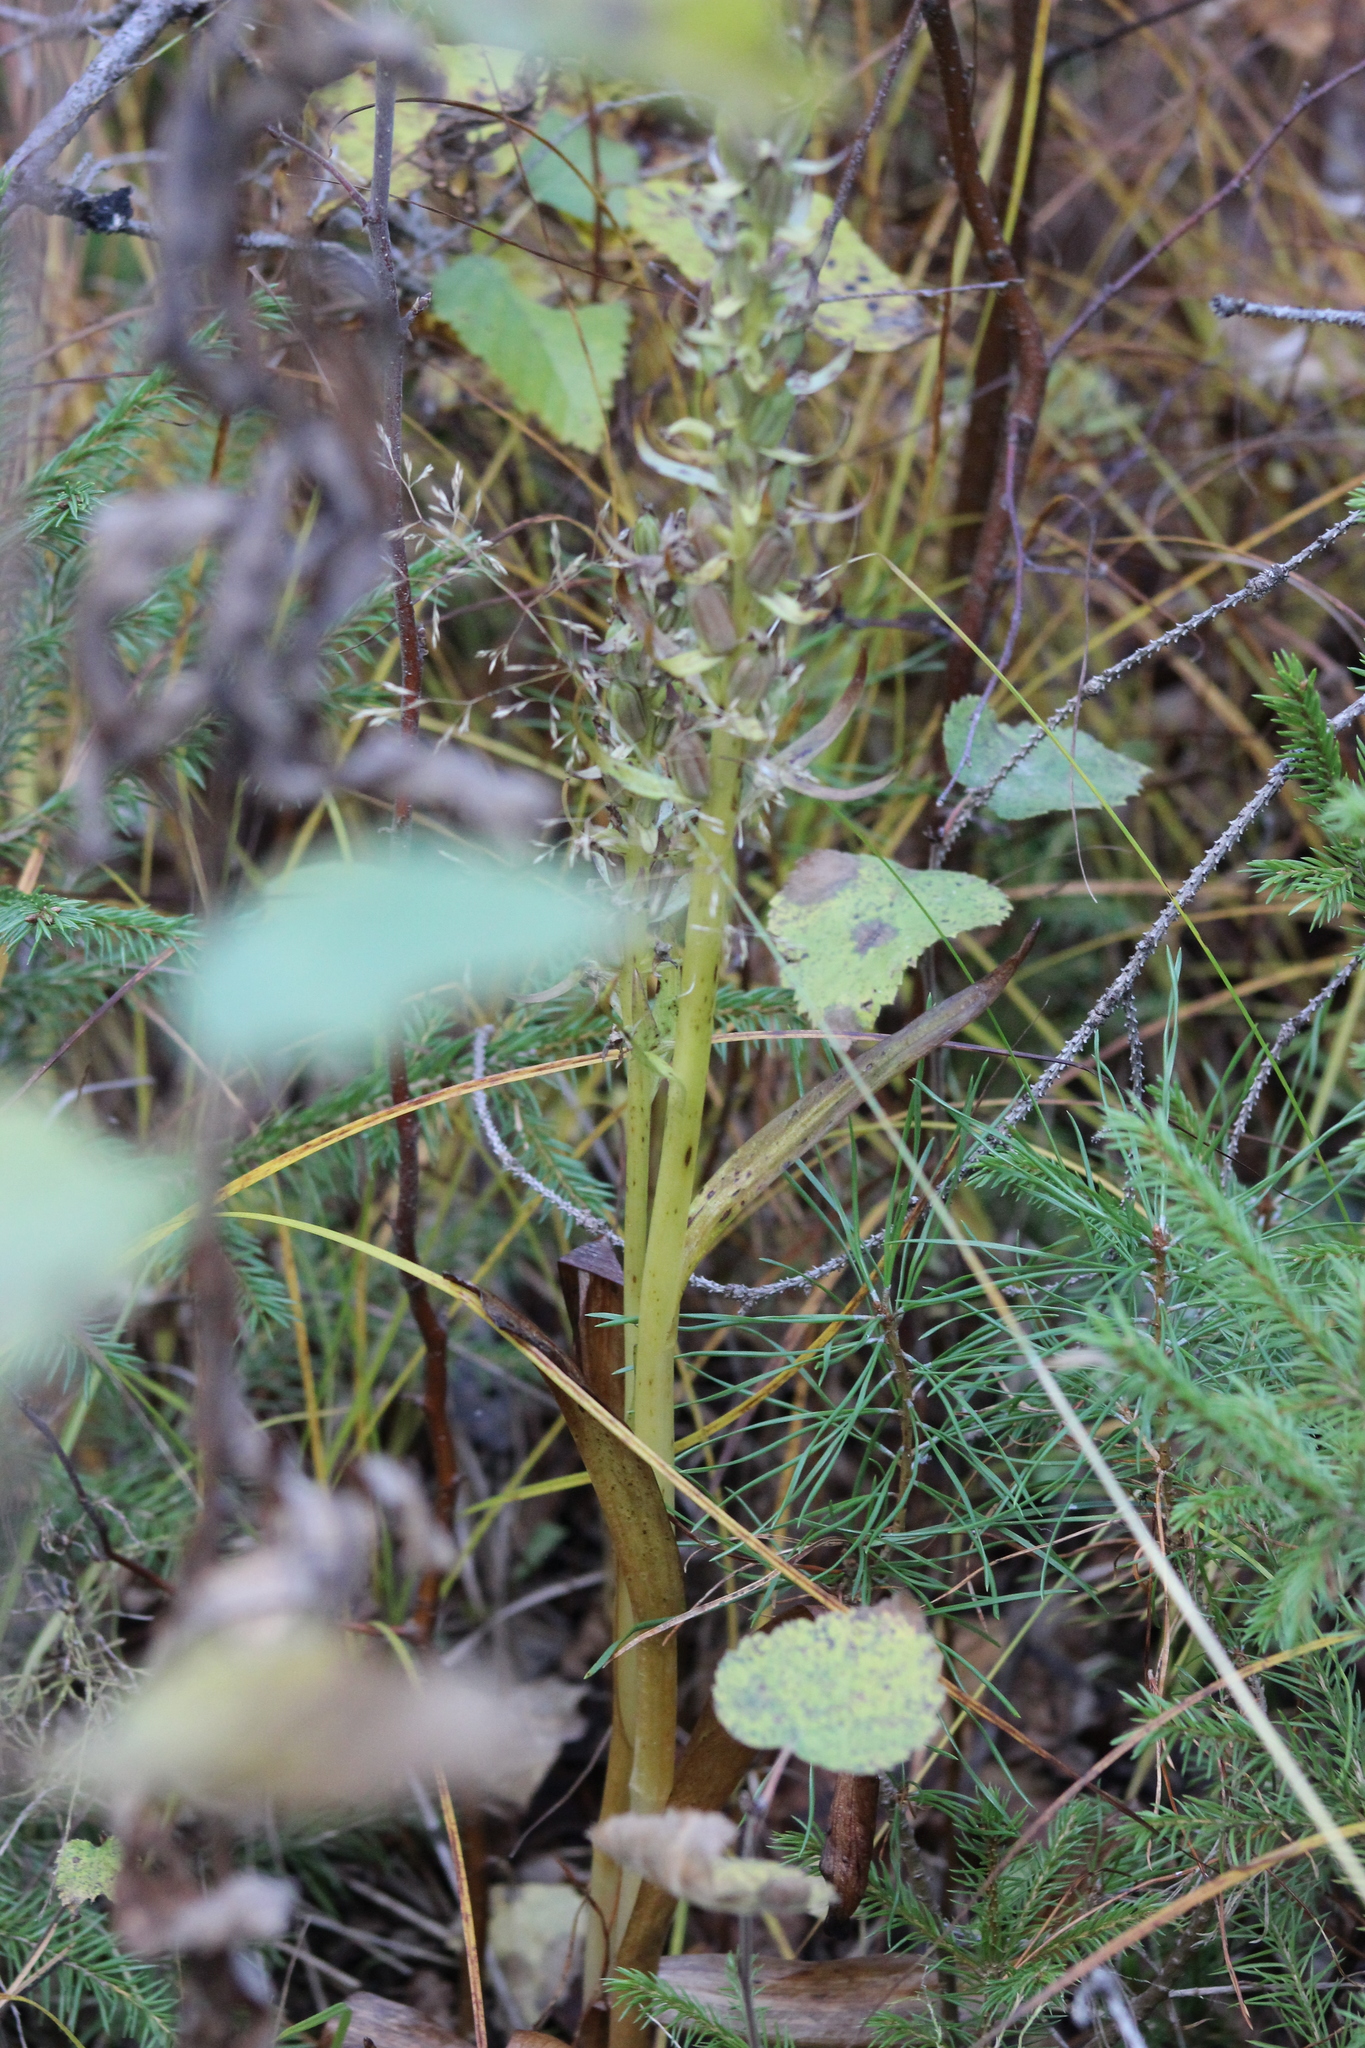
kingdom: Plantae
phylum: Tracheophyta
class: Liliopsida
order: Asparagales
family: Orchidaceae
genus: Dactylorhiza
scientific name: Dactylorhiza viridis
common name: Longbract frog orchid
